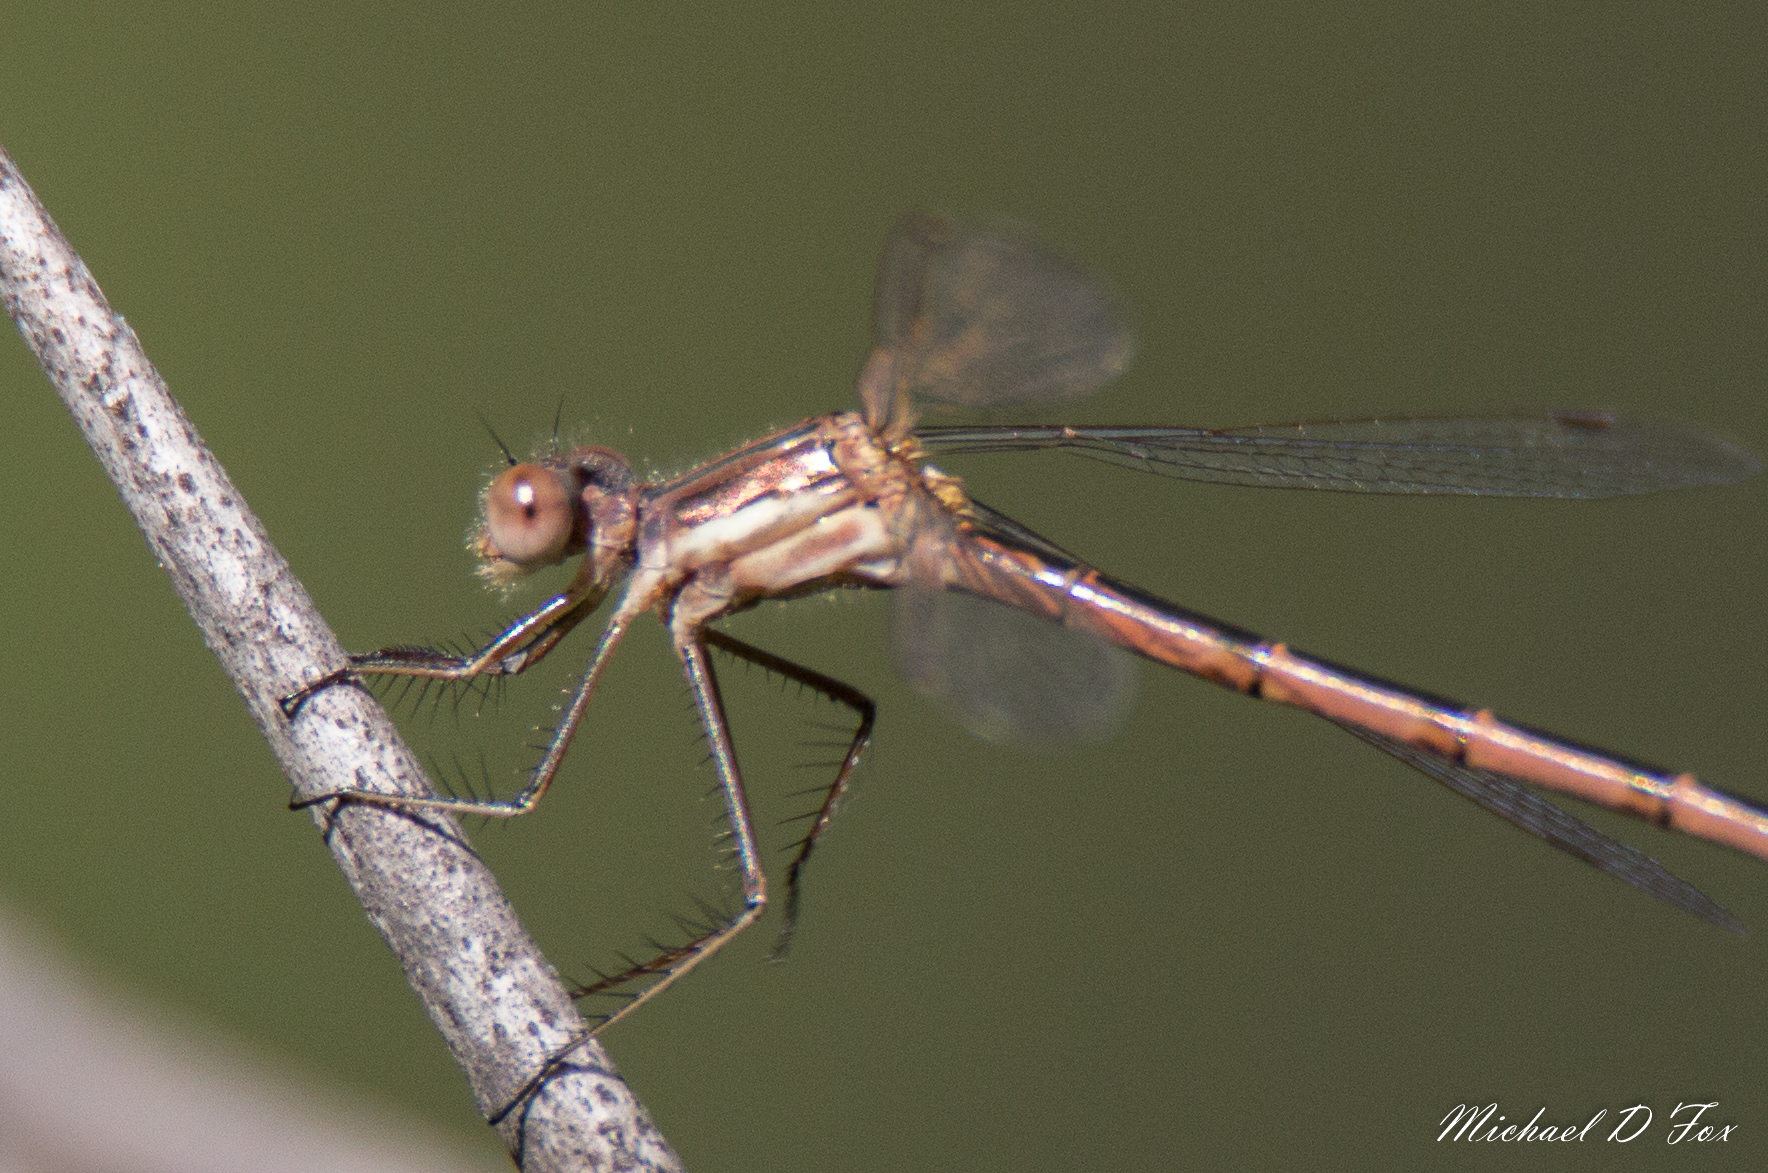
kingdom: Animalia
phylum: Arthropoda
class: Insecta
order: Odonata
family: Lestidae
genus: Lestes
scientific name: Lestes australis
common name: Southern spreadwing
